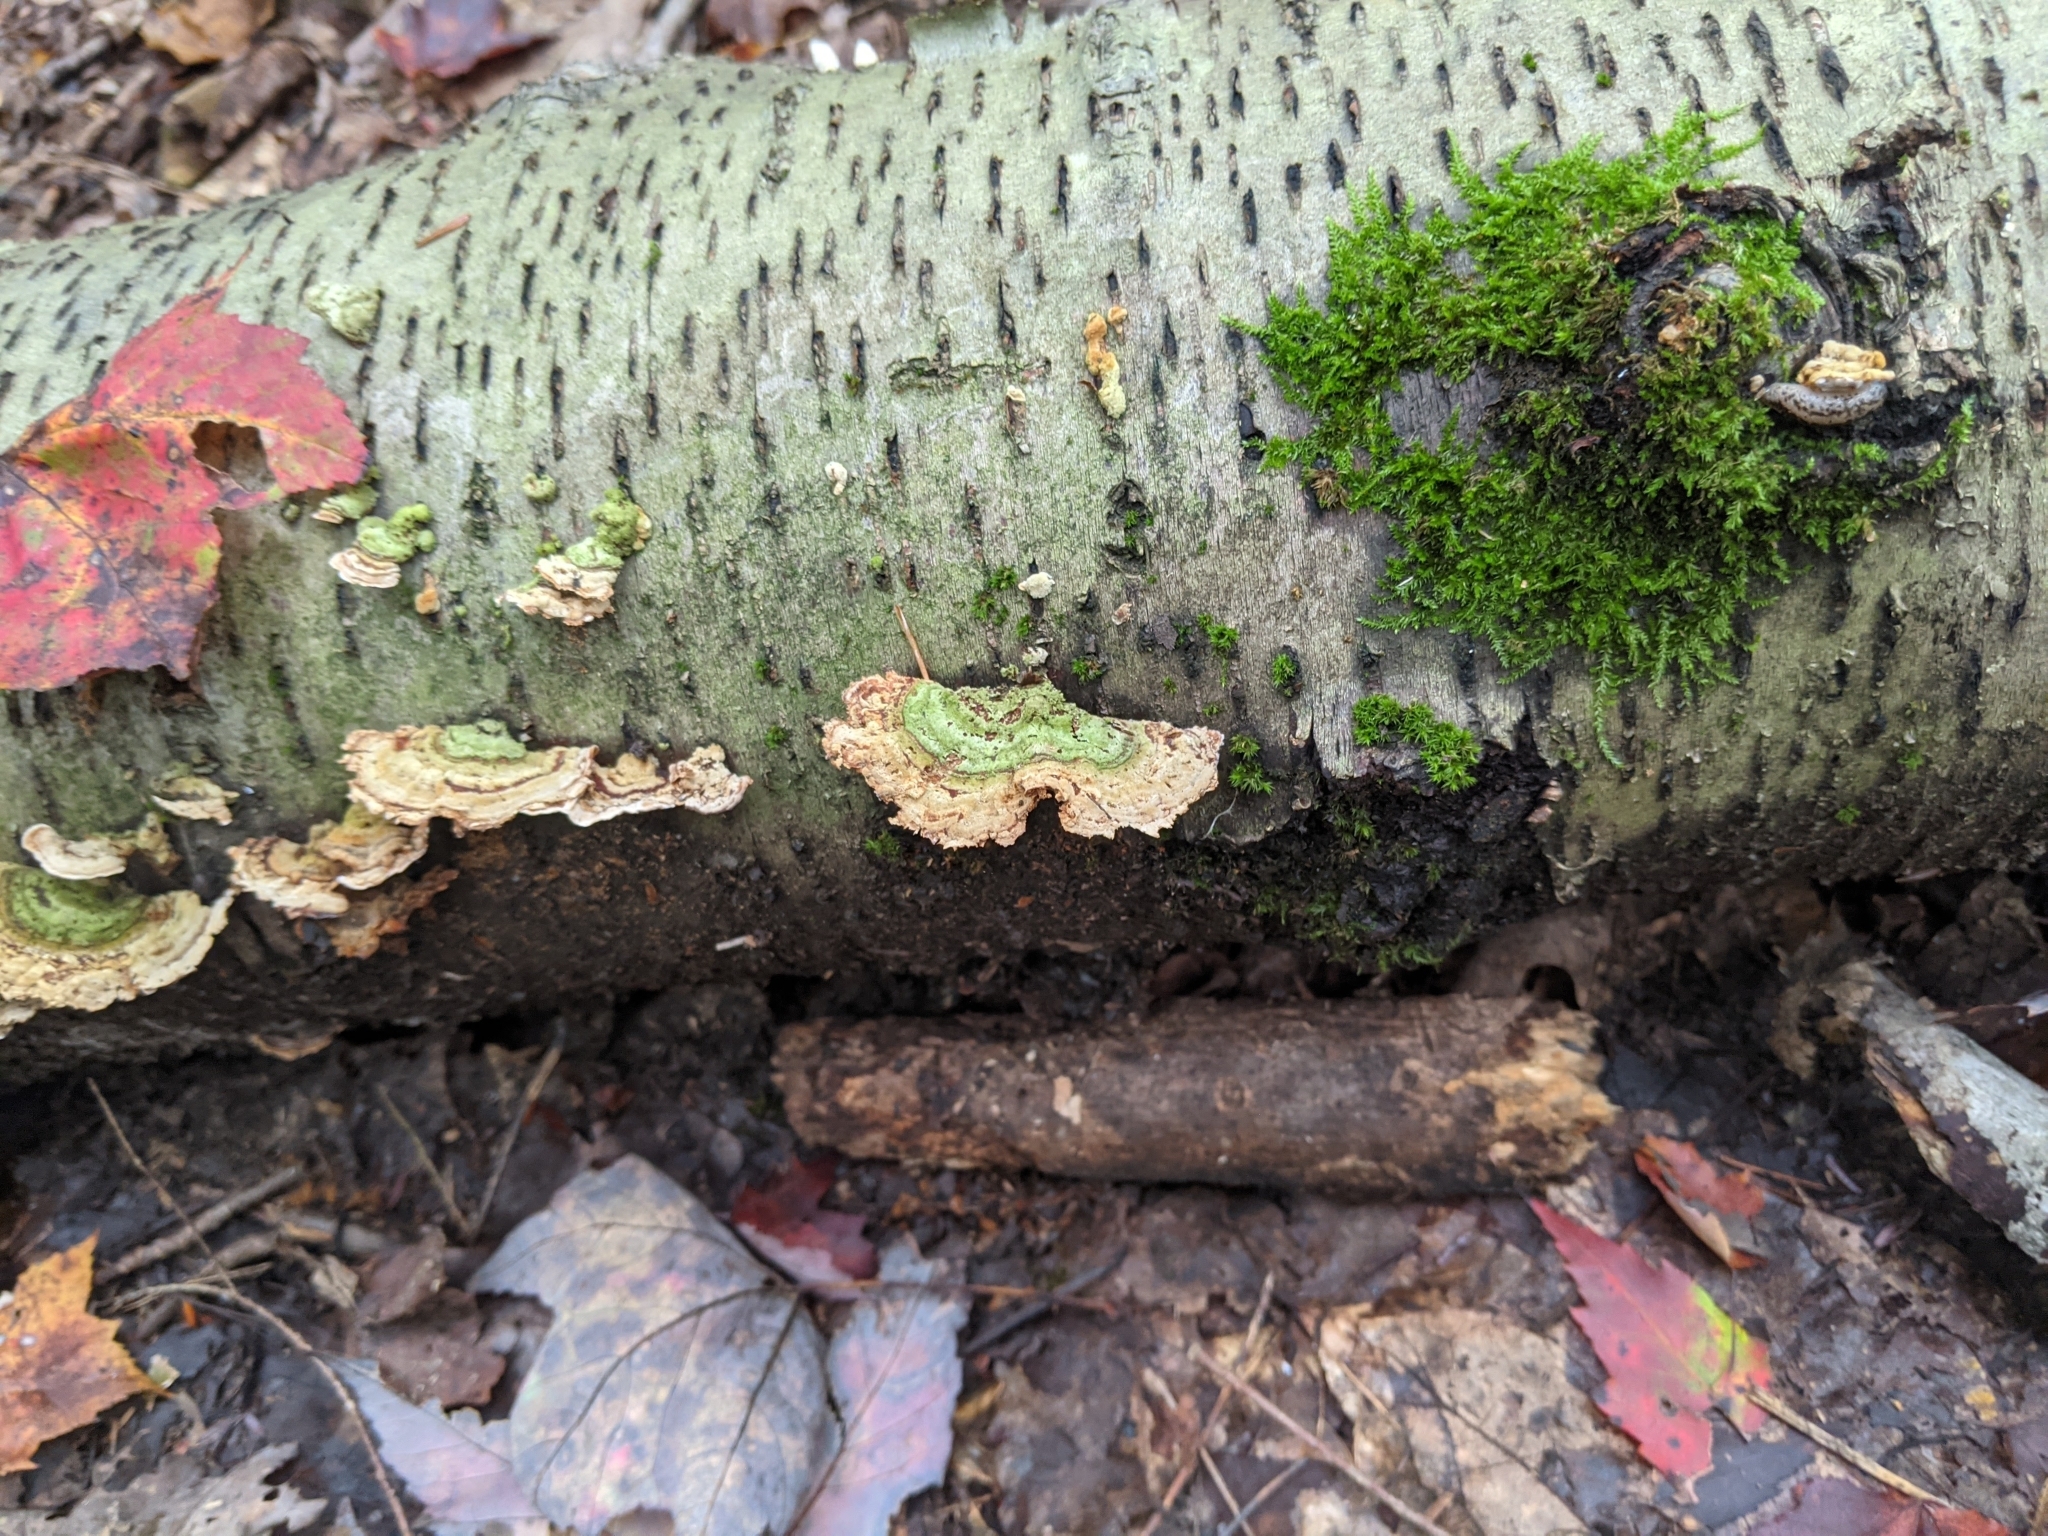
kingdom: Fungi
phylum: Basidiomycota
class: Agaricomycetes
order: Hymenochaetales
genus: Trichaptum
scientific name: Trichaptum biforme
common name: Violet-toothed polypore
